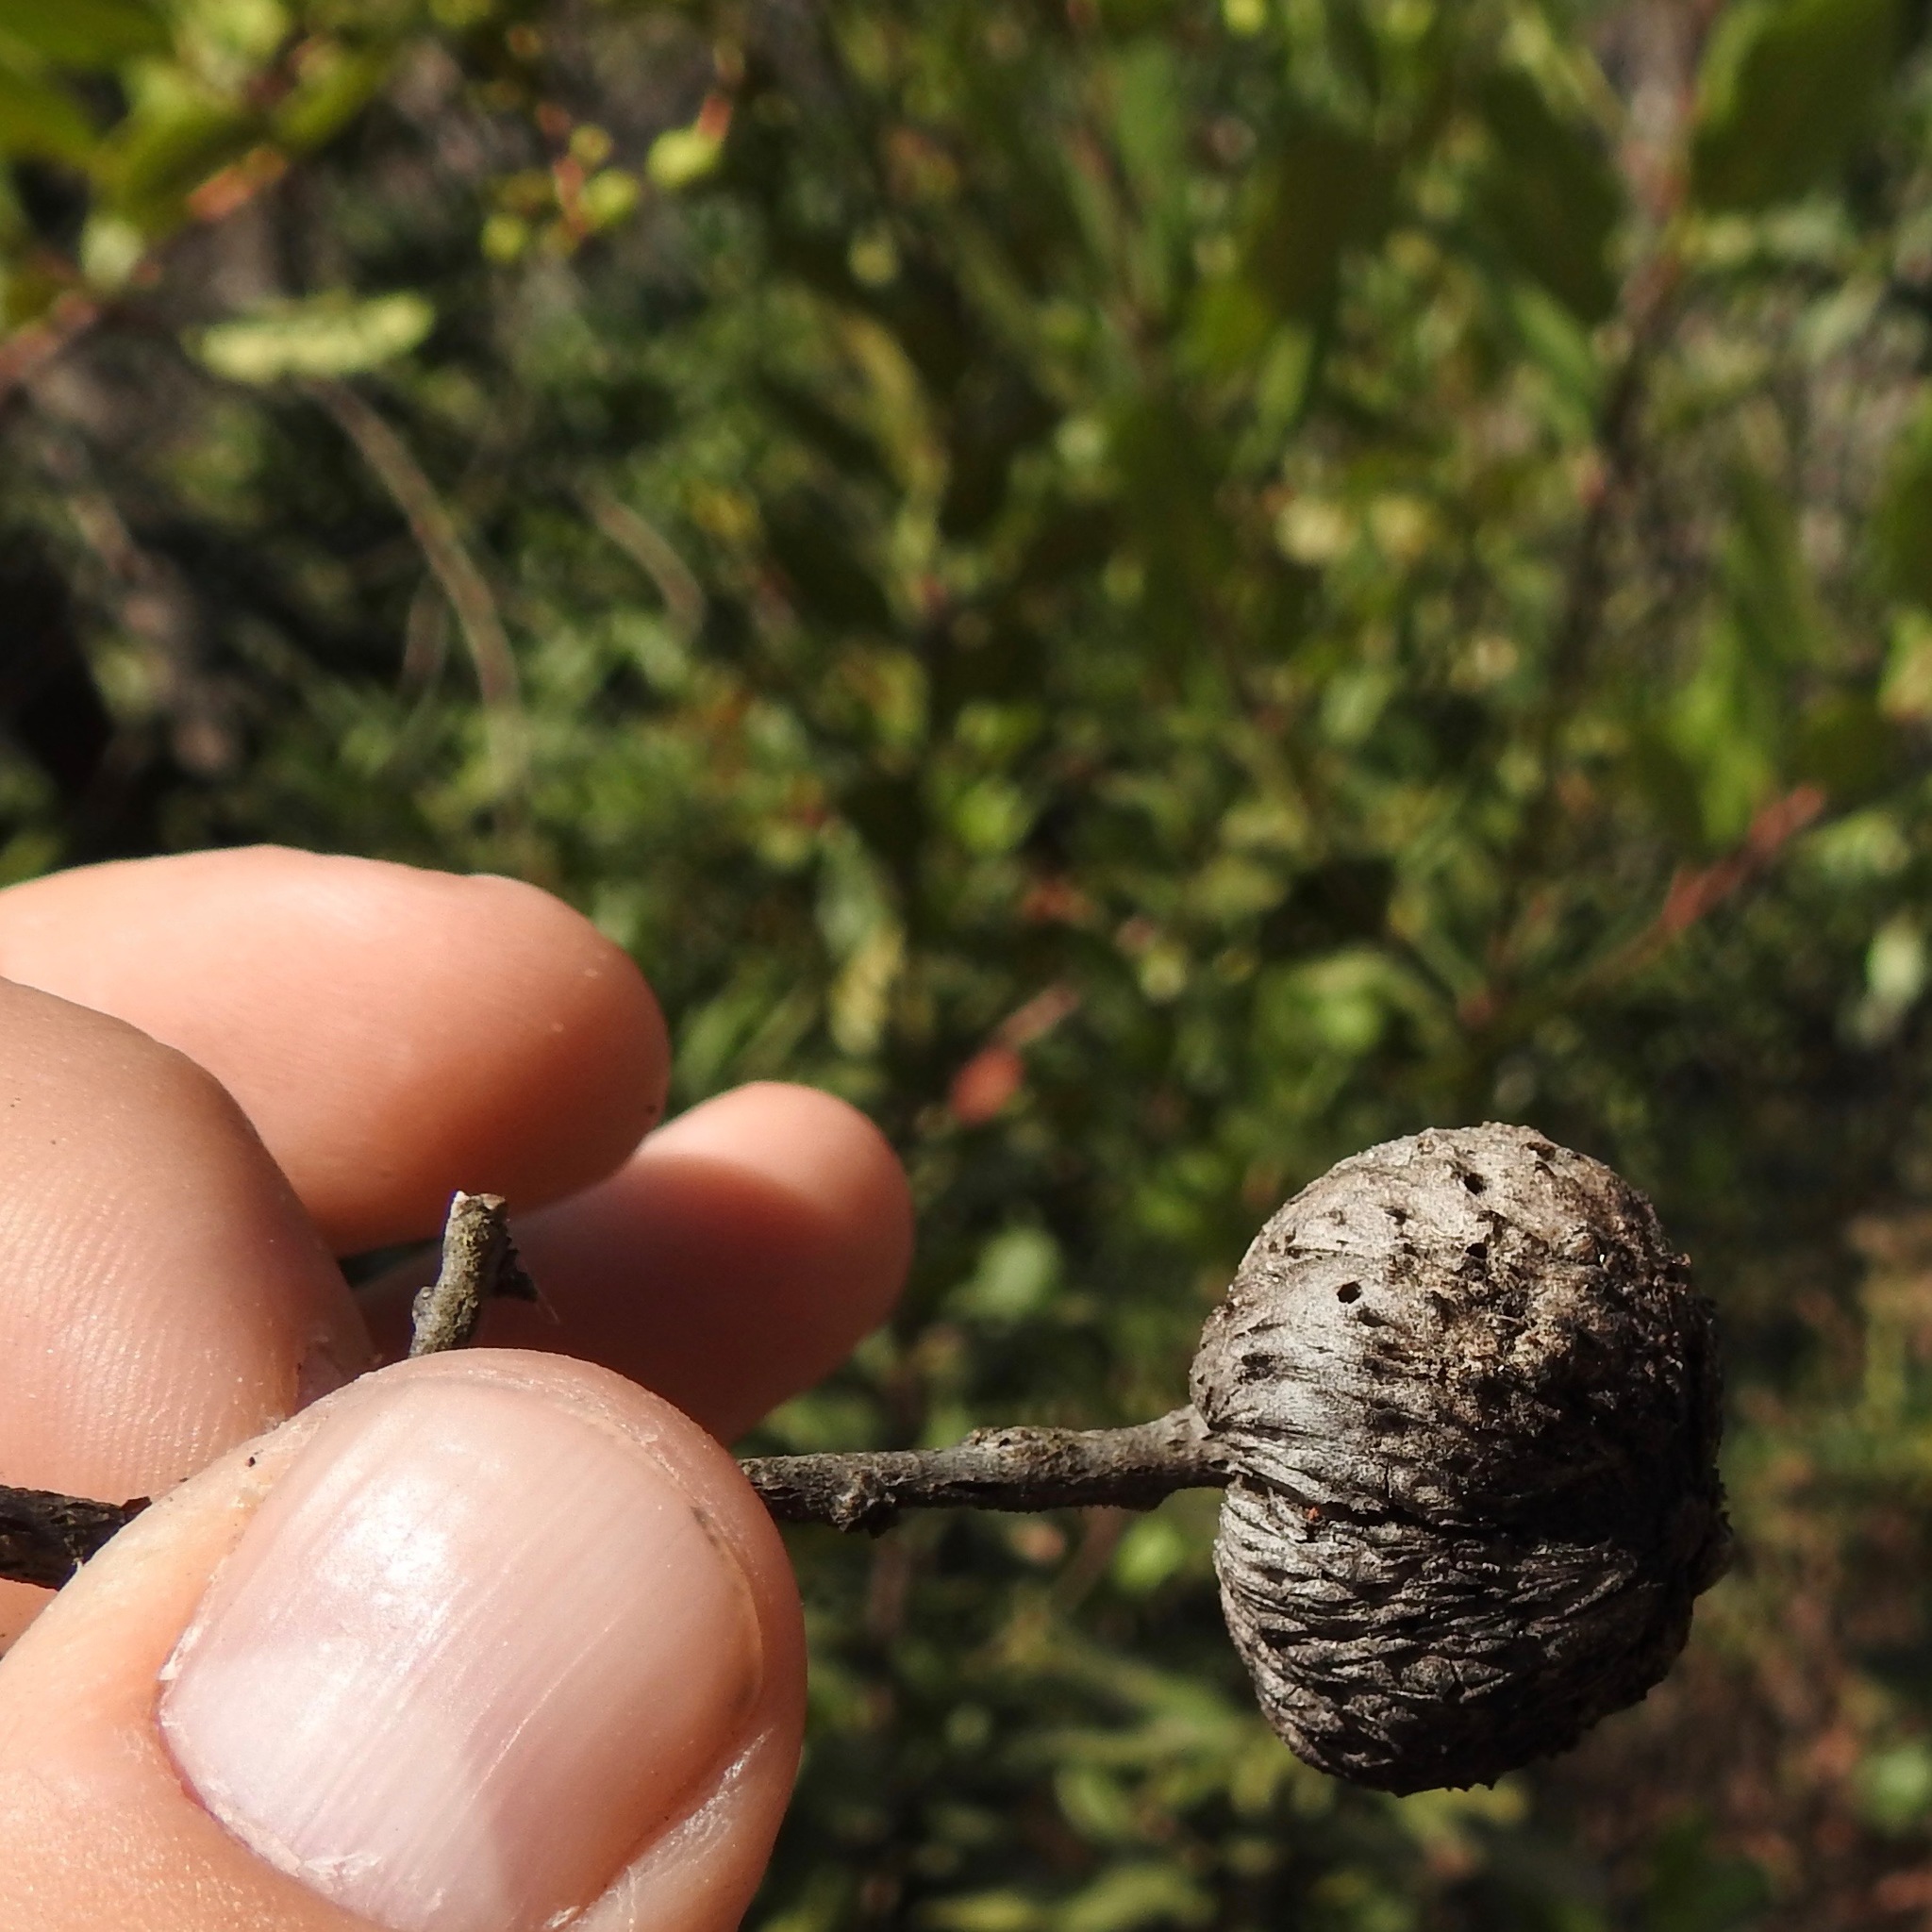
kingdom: Animalia
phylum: Arthropoda
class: Insecta
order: Hymenoptera
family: Cynipidae
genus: Amphibolips
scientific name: Amphibolips quercuspomiformis
